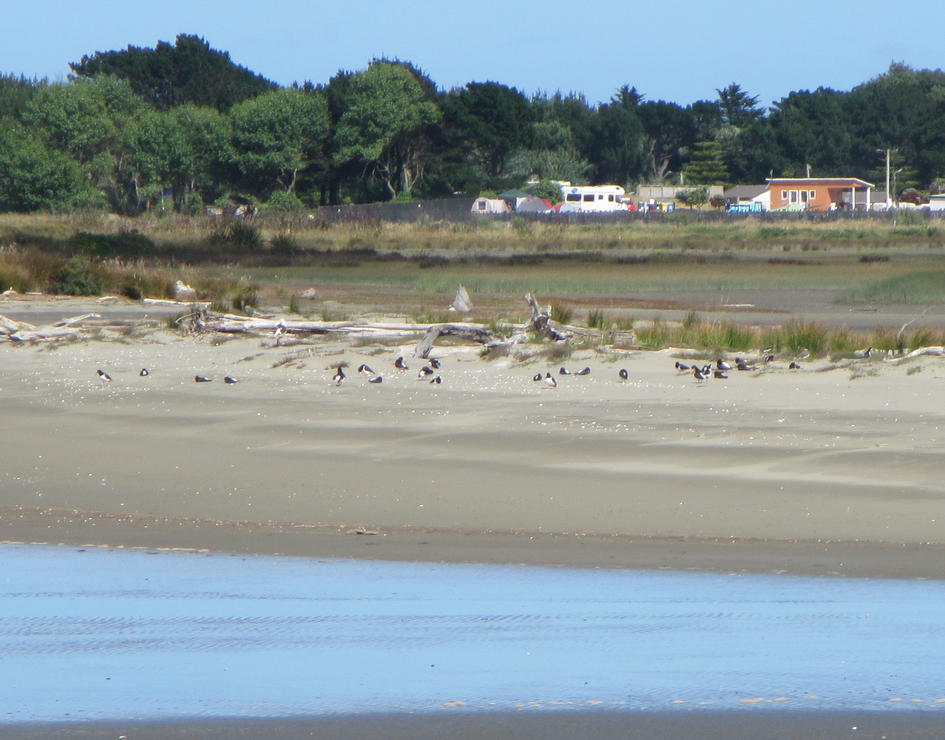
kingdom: Animalia
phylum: Chordata
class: Aves
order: Charadriiformes
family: Haematopodidae
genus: Haematopus
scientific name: Haematopus finschi
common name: South island oystercatcher
